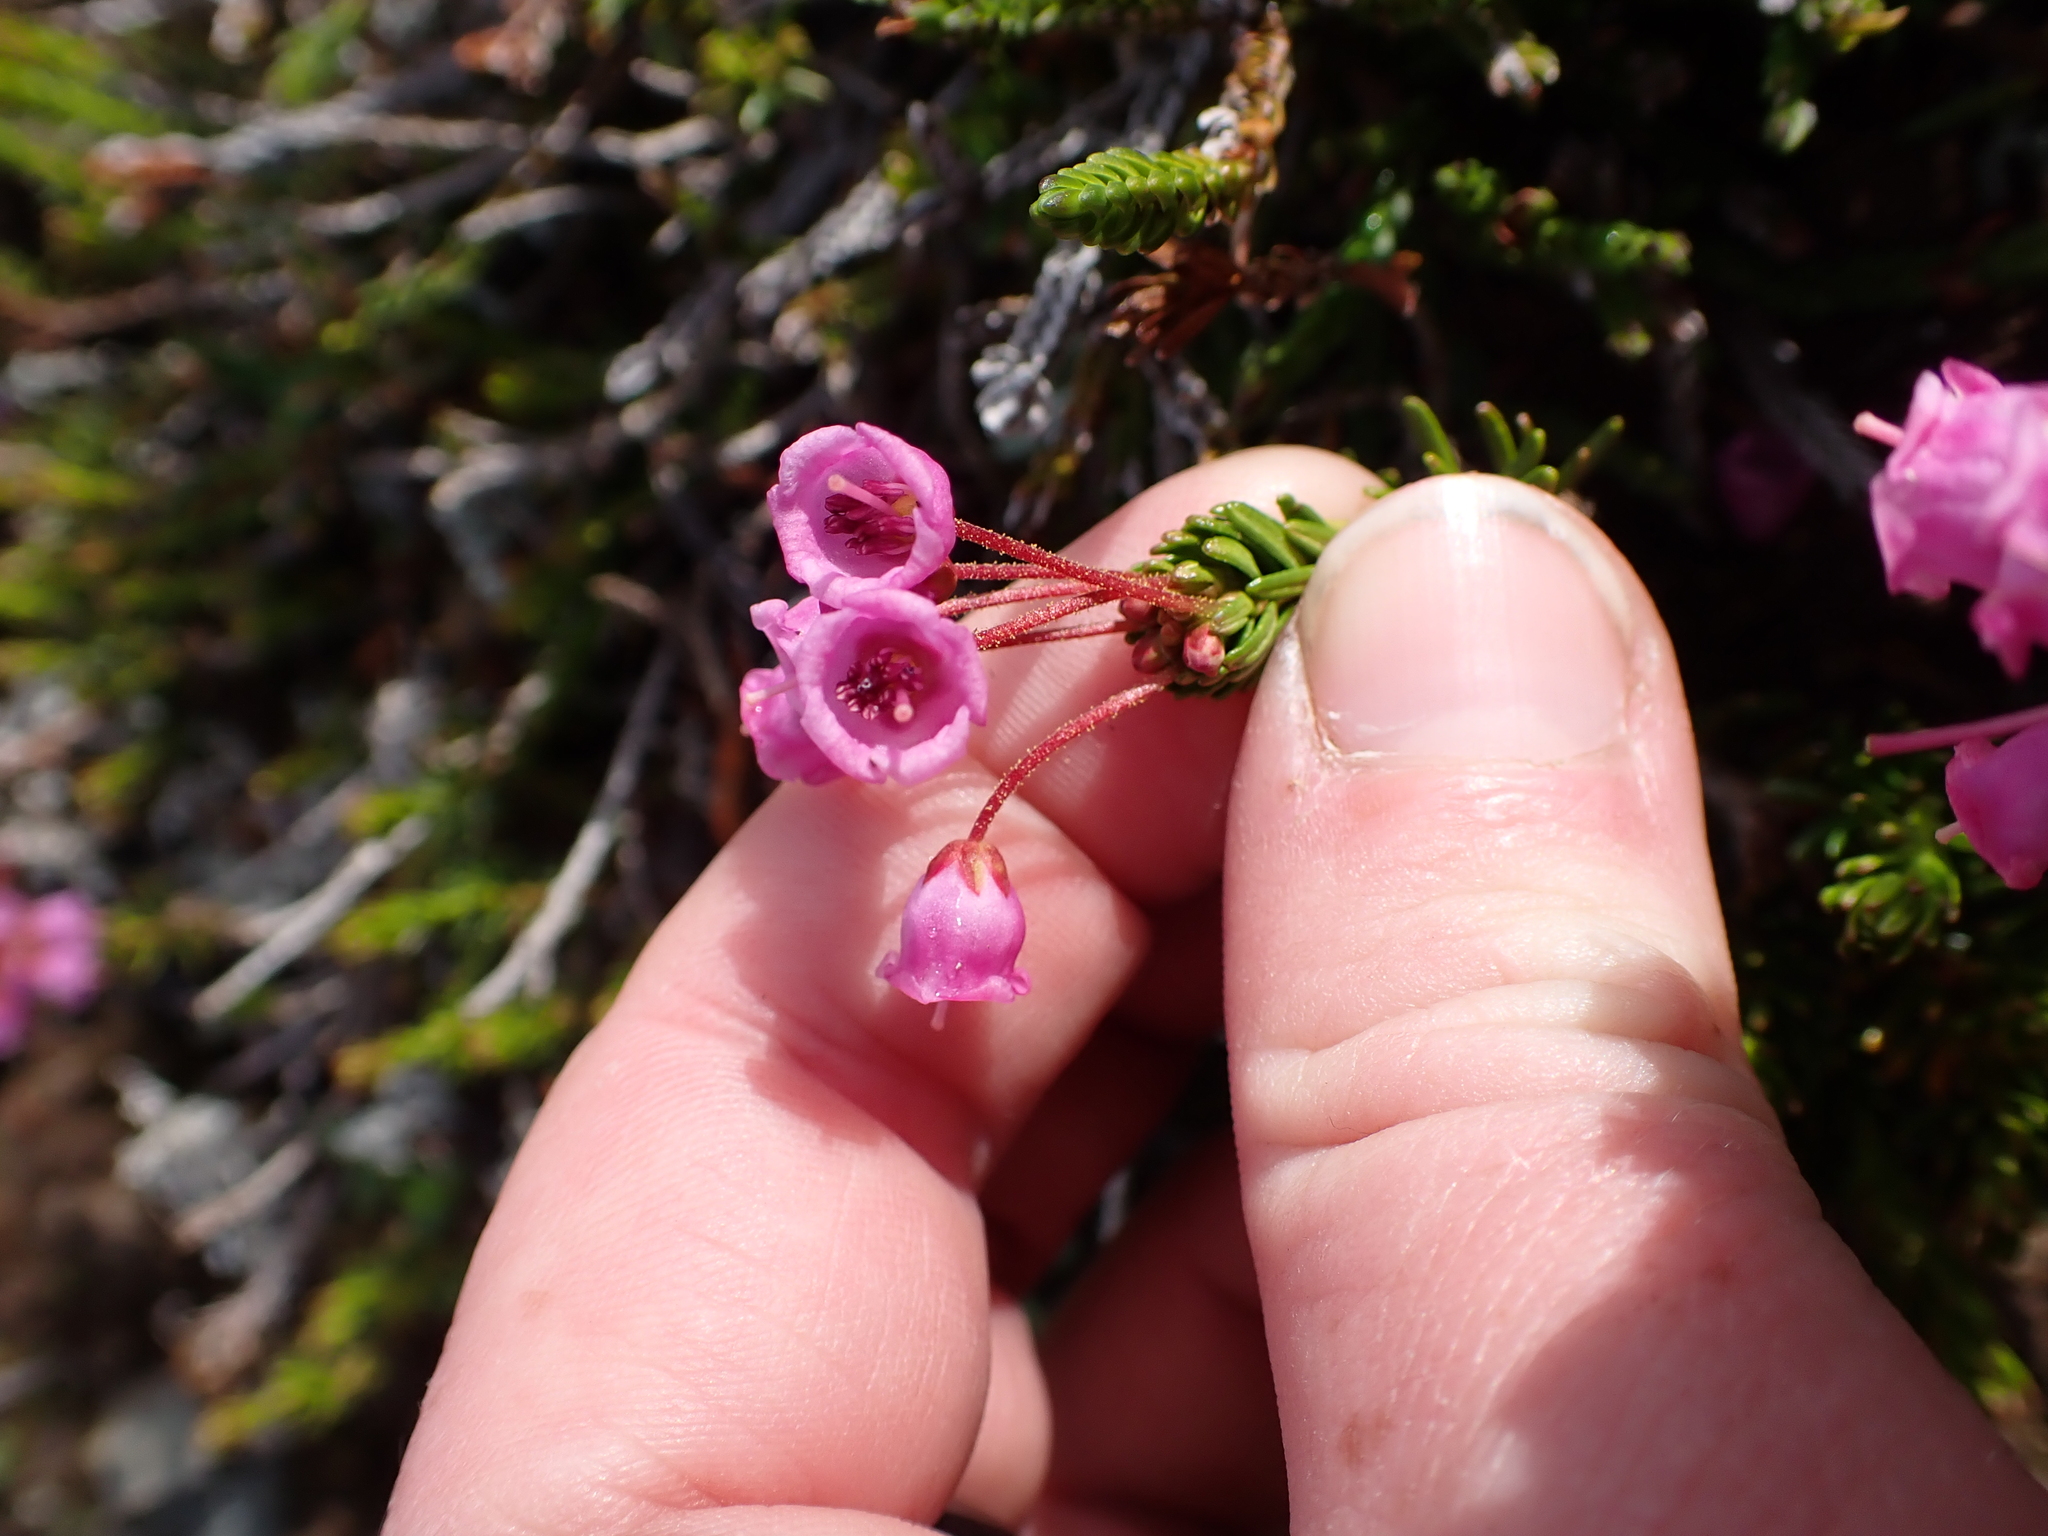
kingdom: Plantae
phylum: Tracheophyta
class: Magnoliopsida
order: Ericales
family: Ericaceae
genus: Phyllodoce
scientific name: Phyllodoce empetriformis
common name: Pink mountain heather
